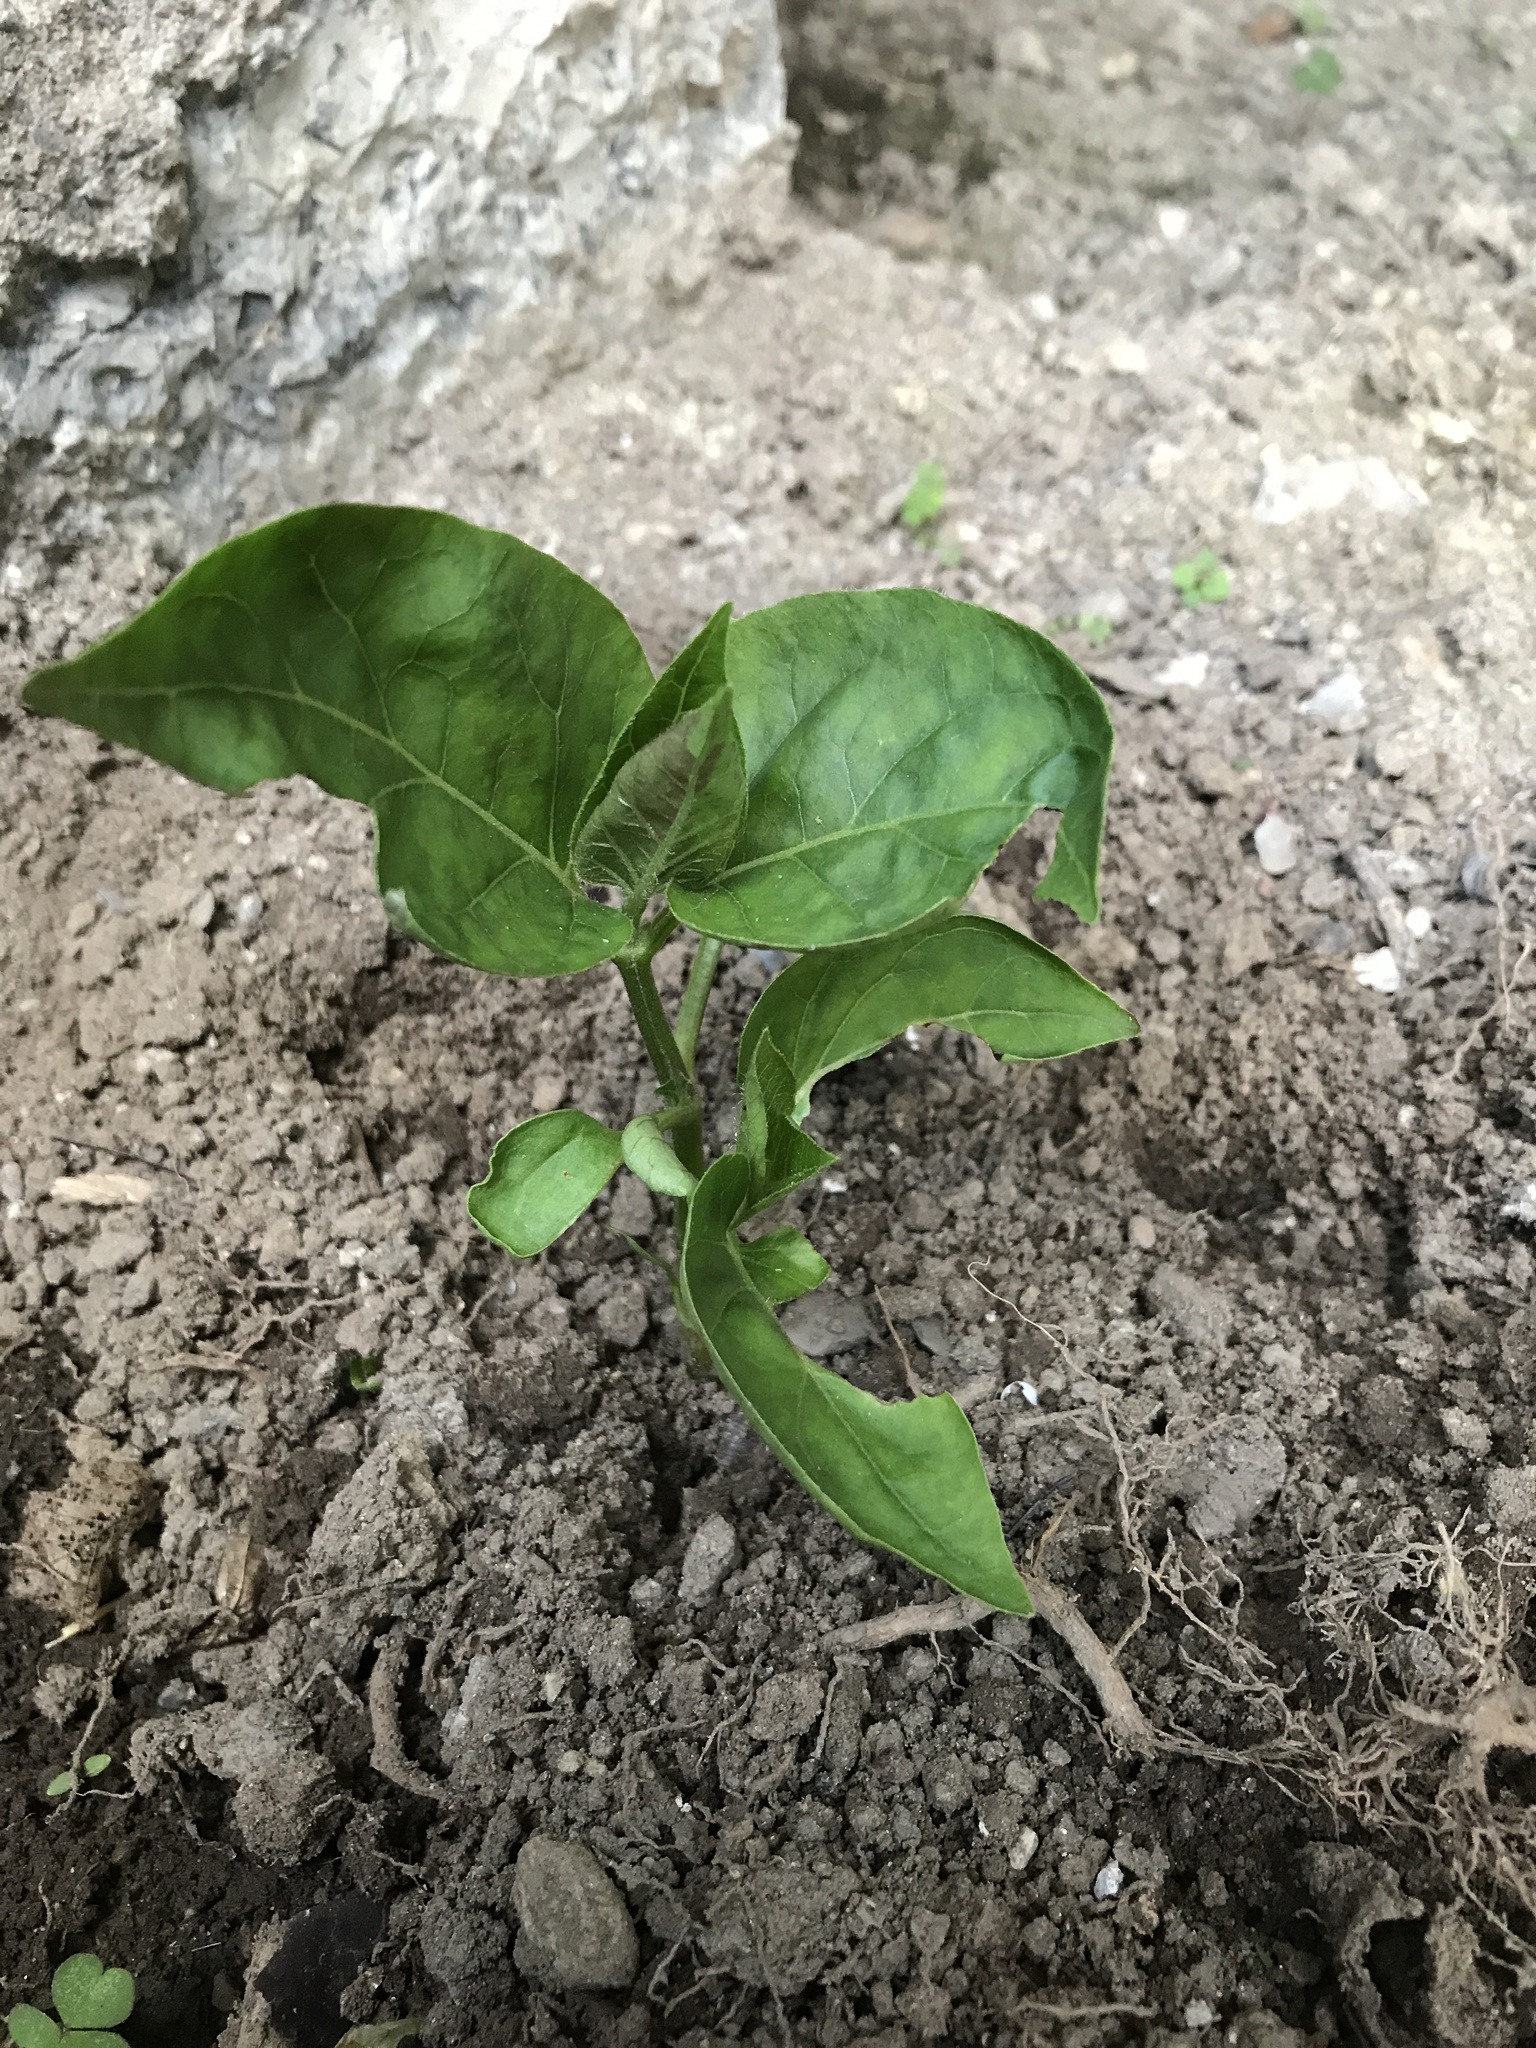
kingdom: Plantae
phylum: Tracheophyta
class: Magnoliopsida
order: Caryophyllales
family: Nyctaginaceae
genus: Mirabilis
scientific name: Mirabilis jalapa
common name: Marvel-of-peru
